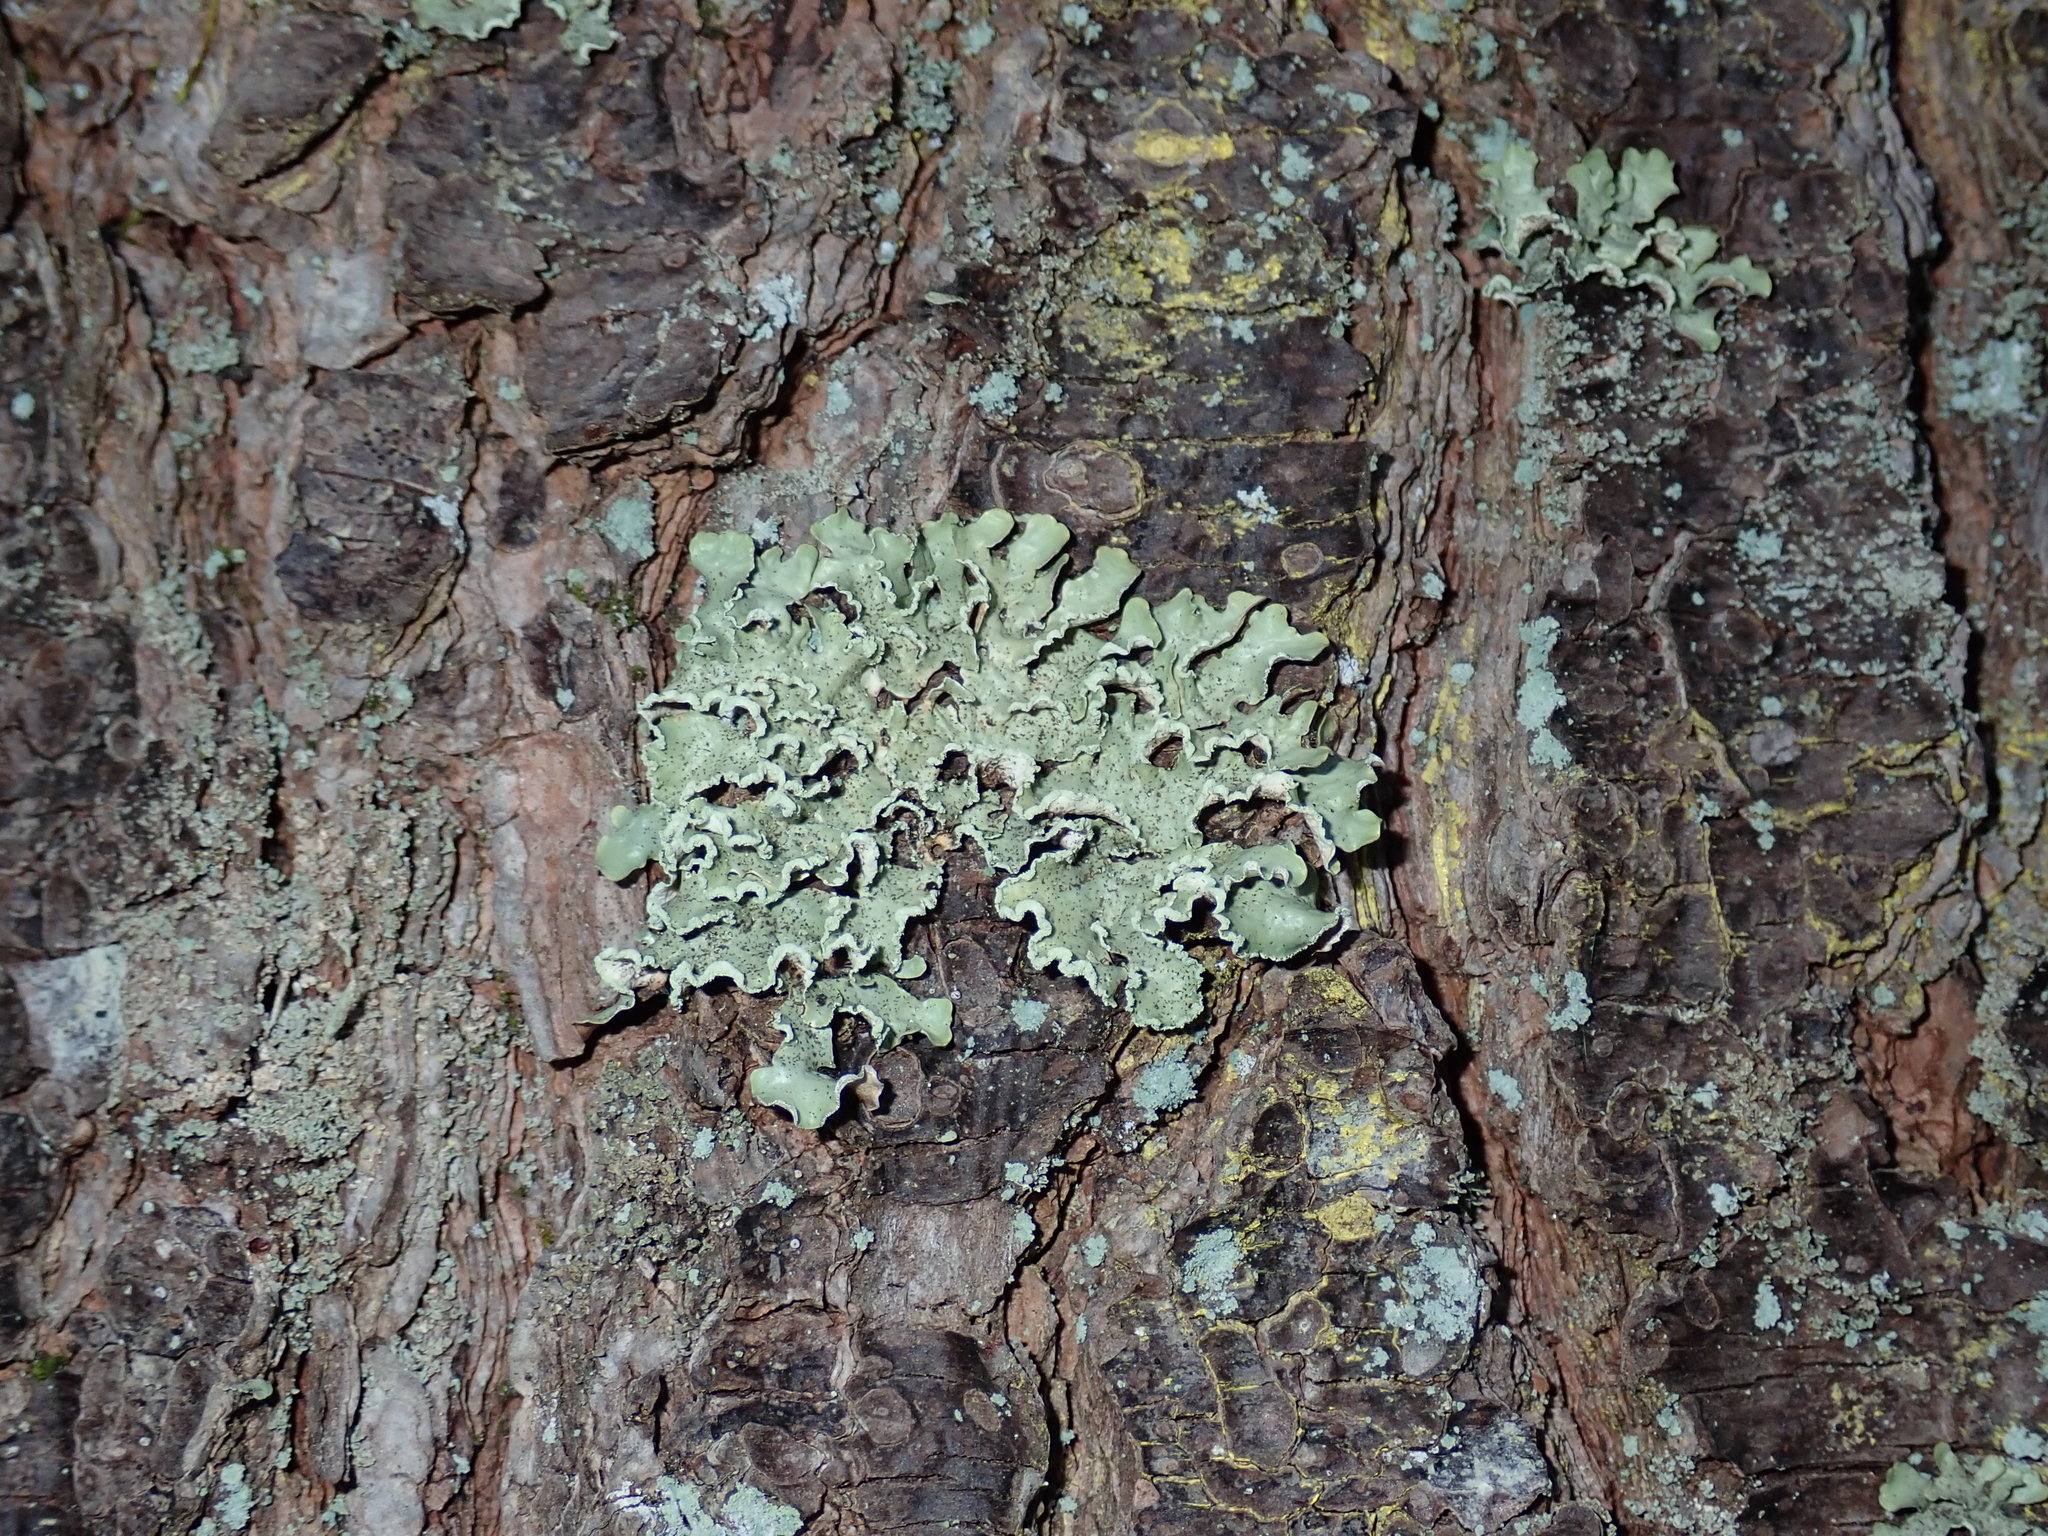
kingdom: Fungi
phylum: Ascomycota
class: Lecanoromycetes
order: Lecanorales
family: Parmeliaceae
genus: Usnocetraria
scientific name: Usnocetraria oakesiana
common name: Yellow ribbon lichen
